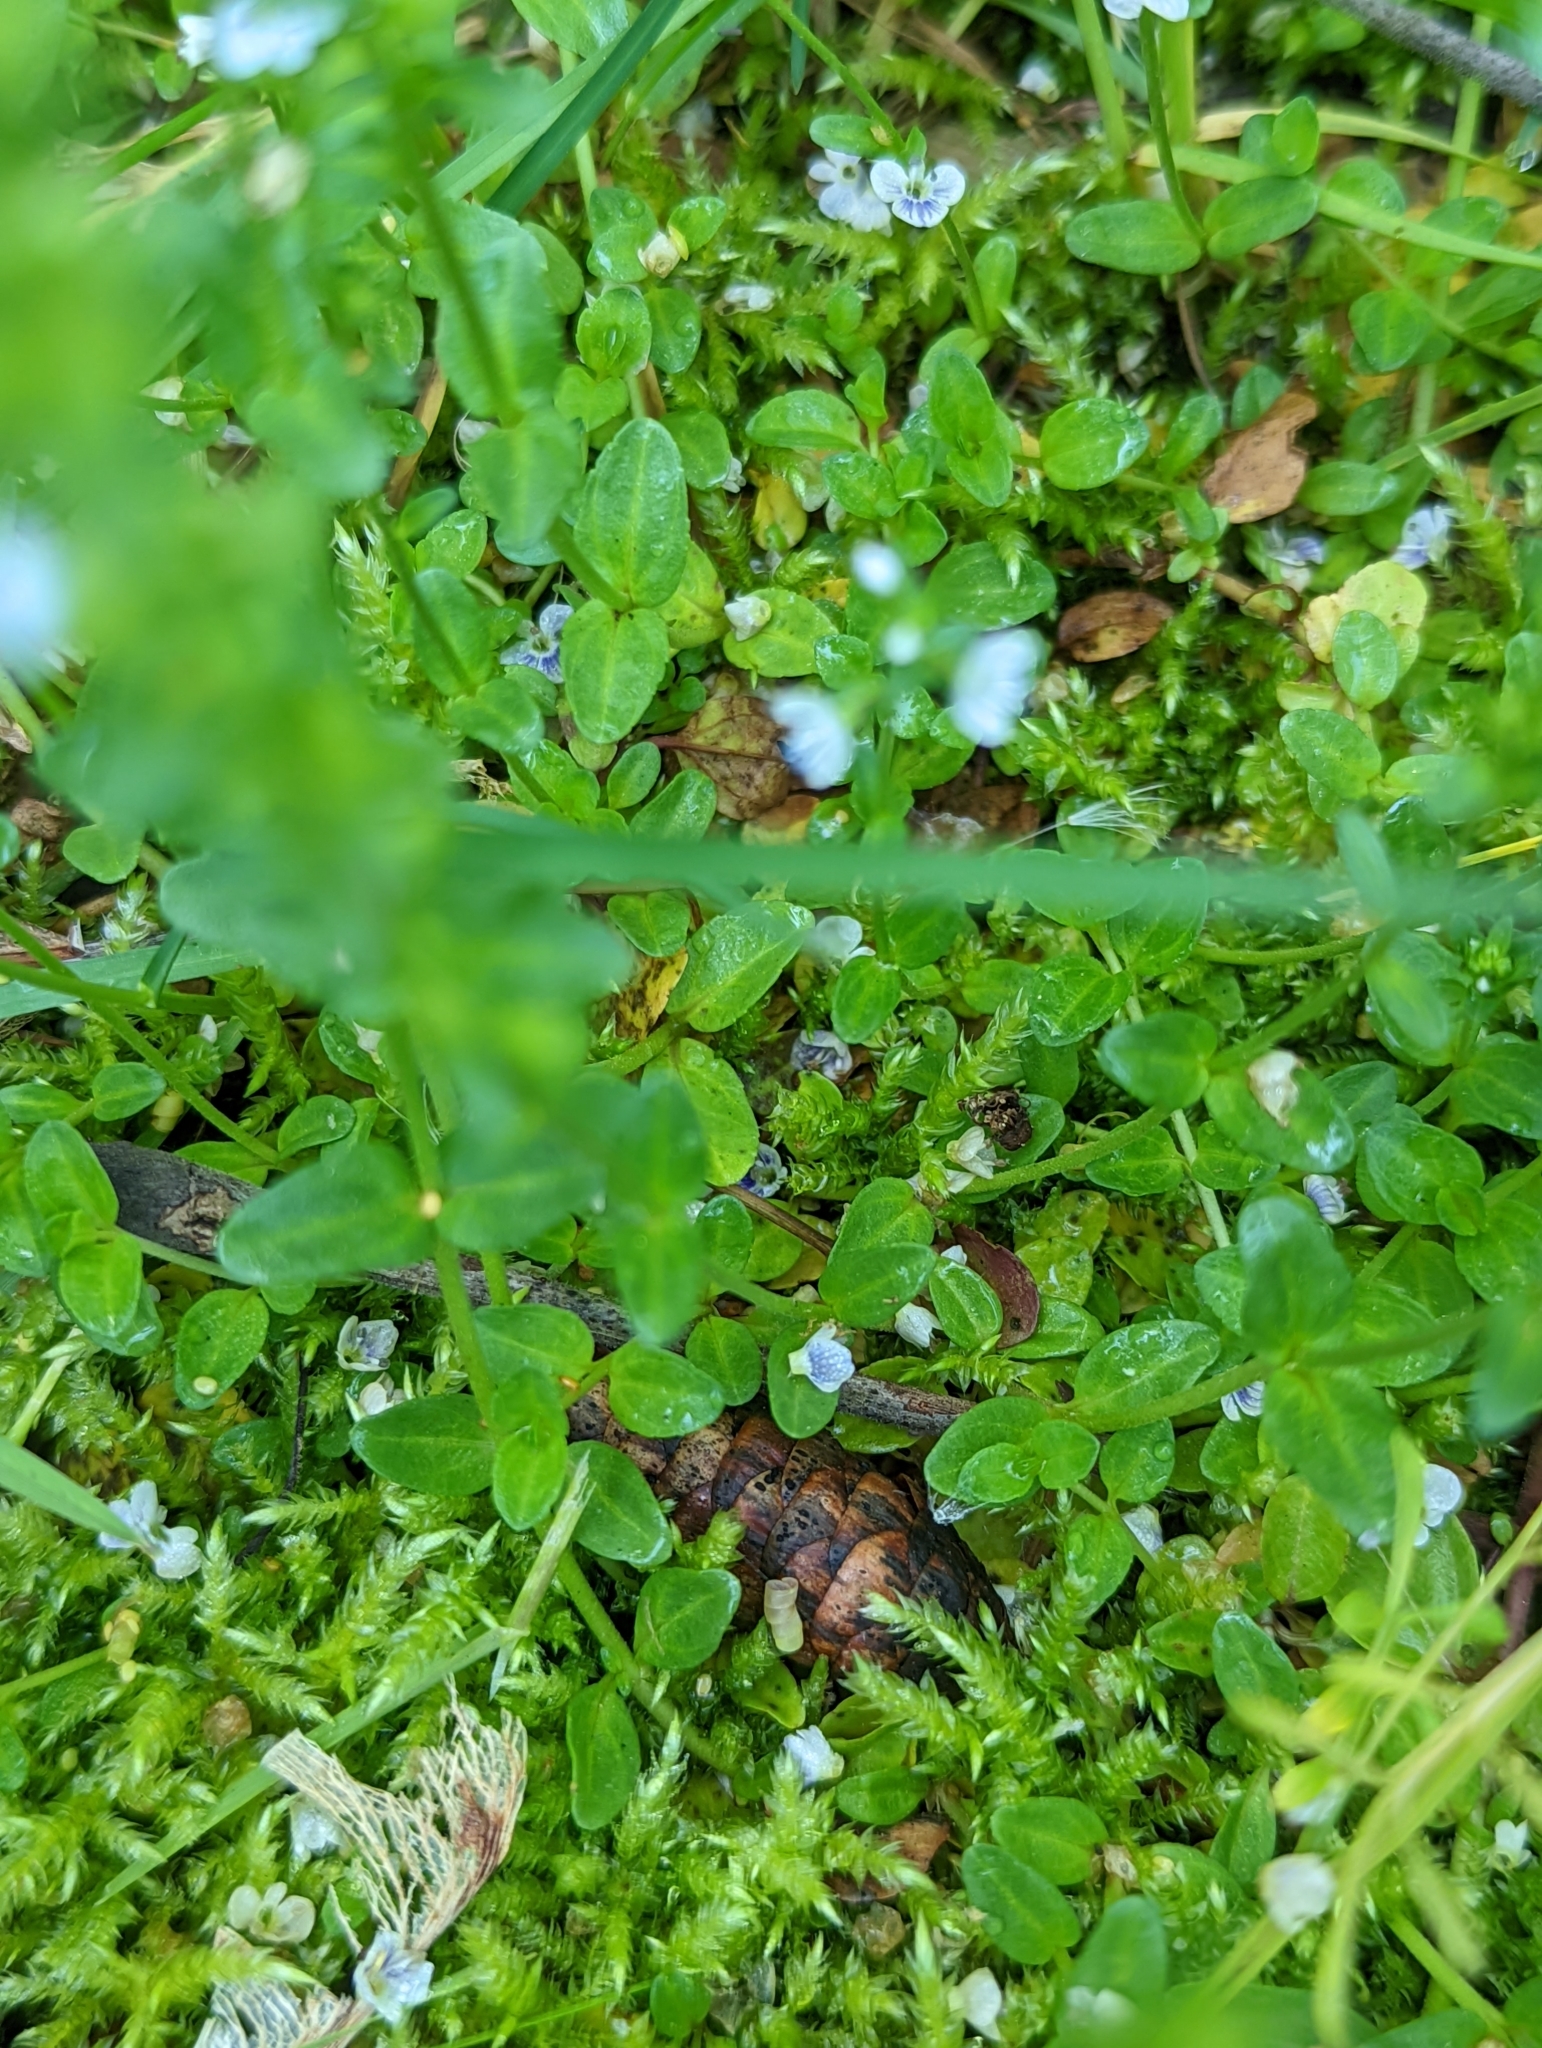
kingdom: Plantae
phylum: Tracheophyta
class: Magnoliopsida
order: Lamiales
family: Plantaginaceae
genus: Veronica
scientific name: Veronica serpyllifolia
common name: Thyme-leaved speedwell
